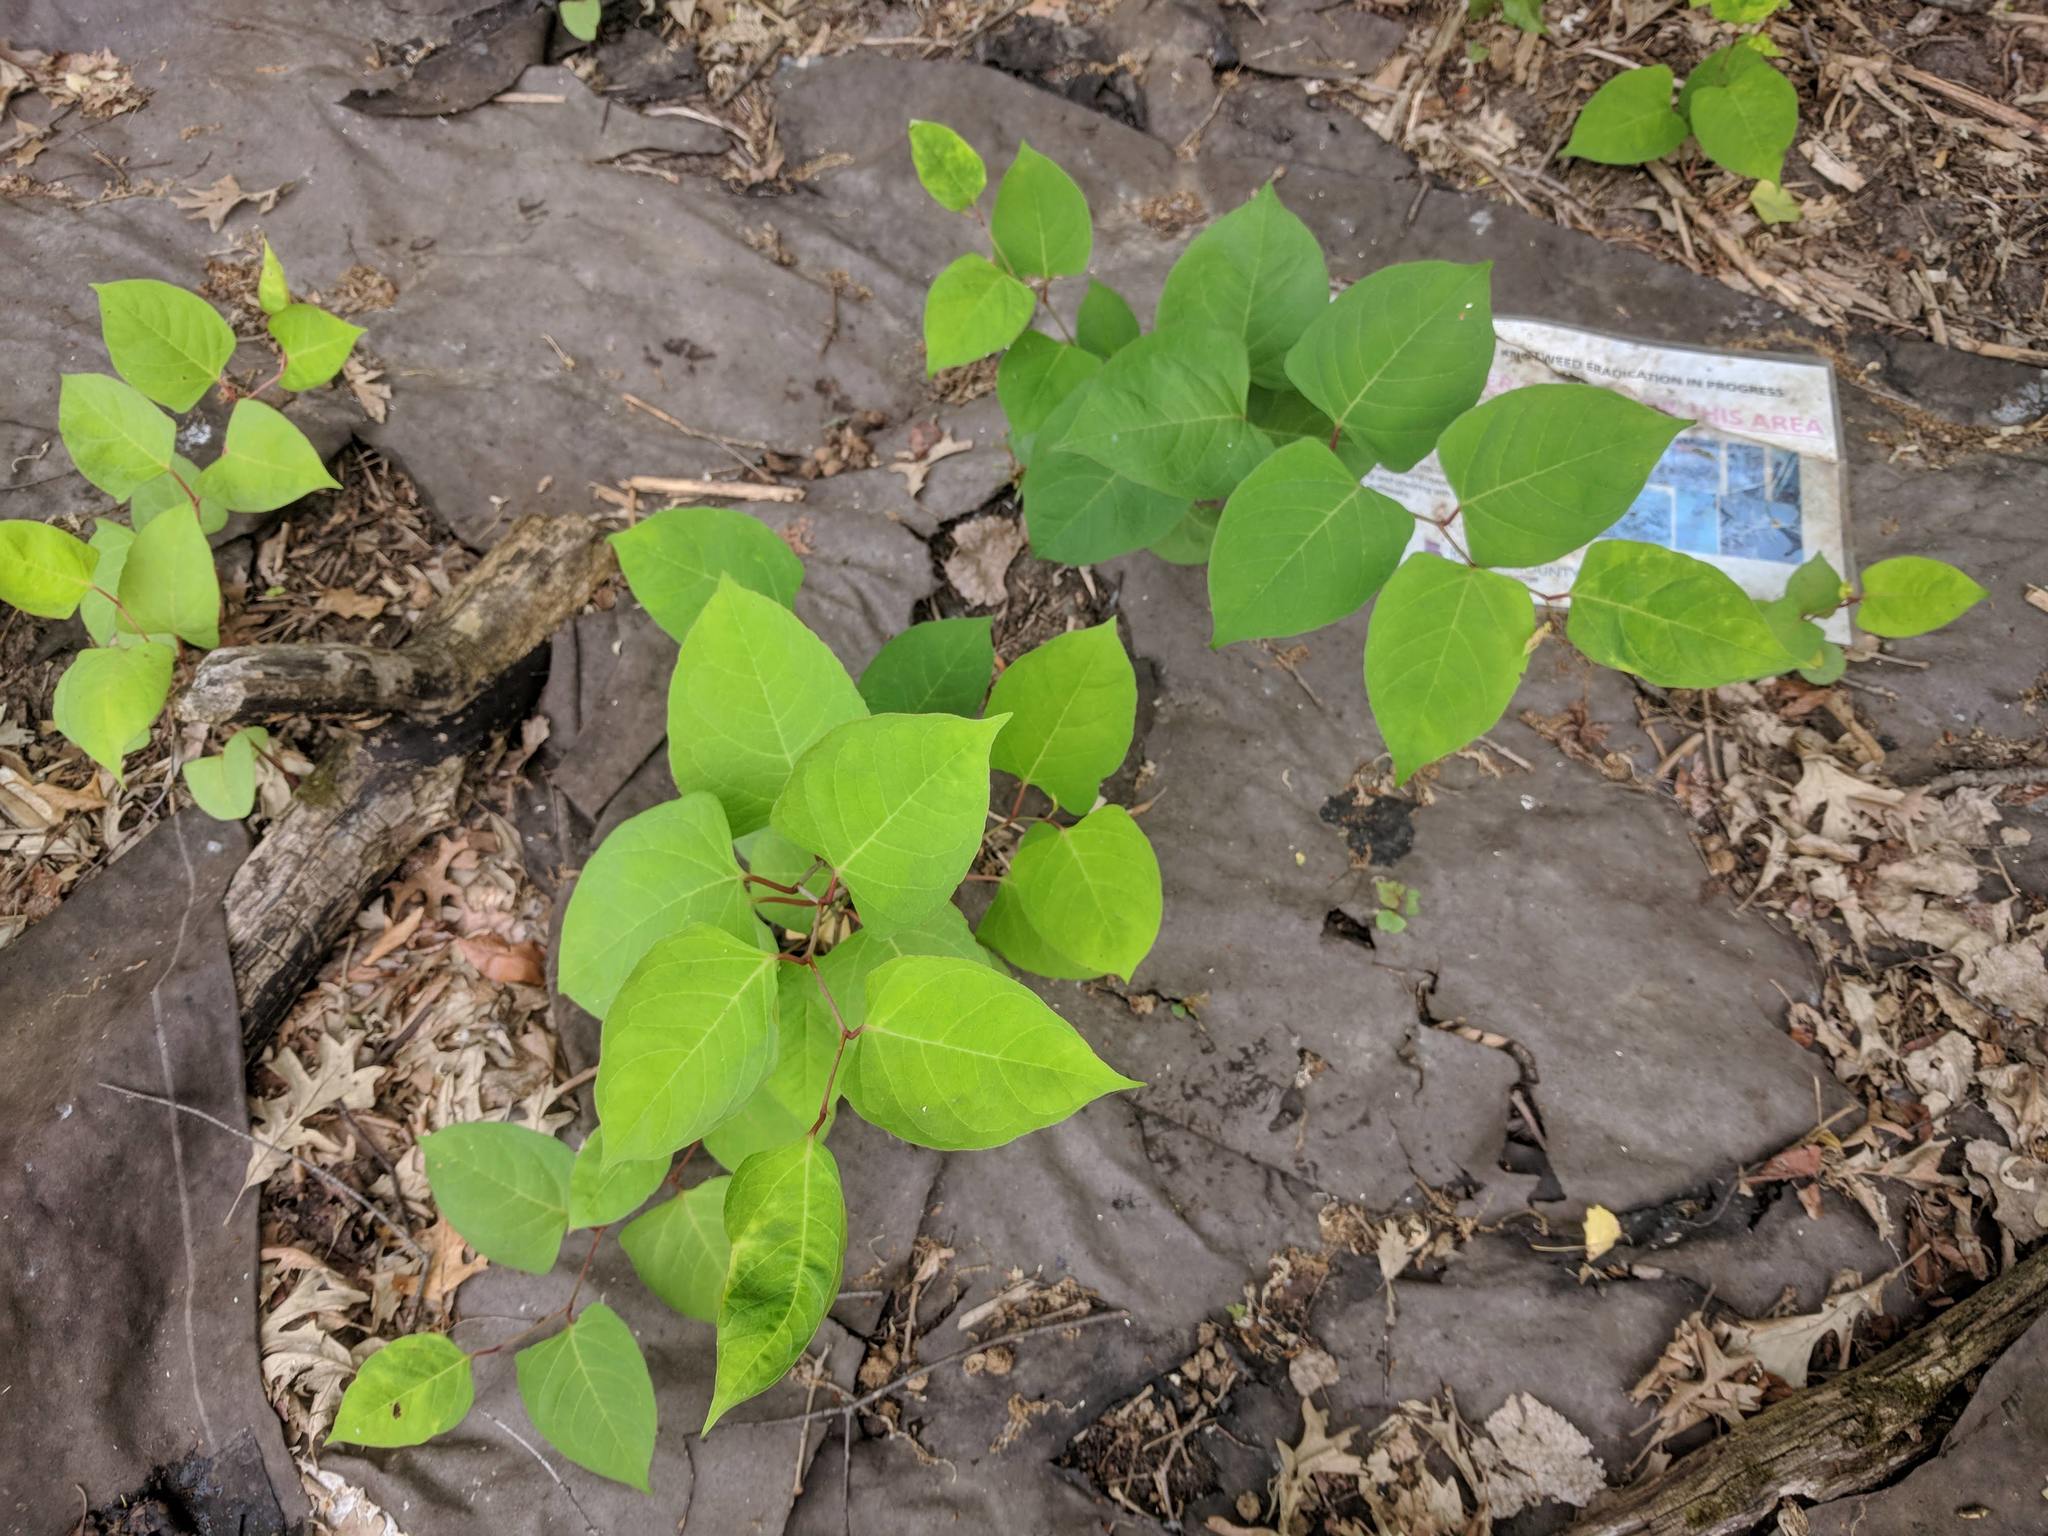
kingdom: Plantae
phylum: Tracheophyta
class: Magnoliopsida
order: Caryophyllales
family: Polygonaceae
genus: Reynoutria
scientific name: Reynoutria japonica
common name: Japanese knotweed
